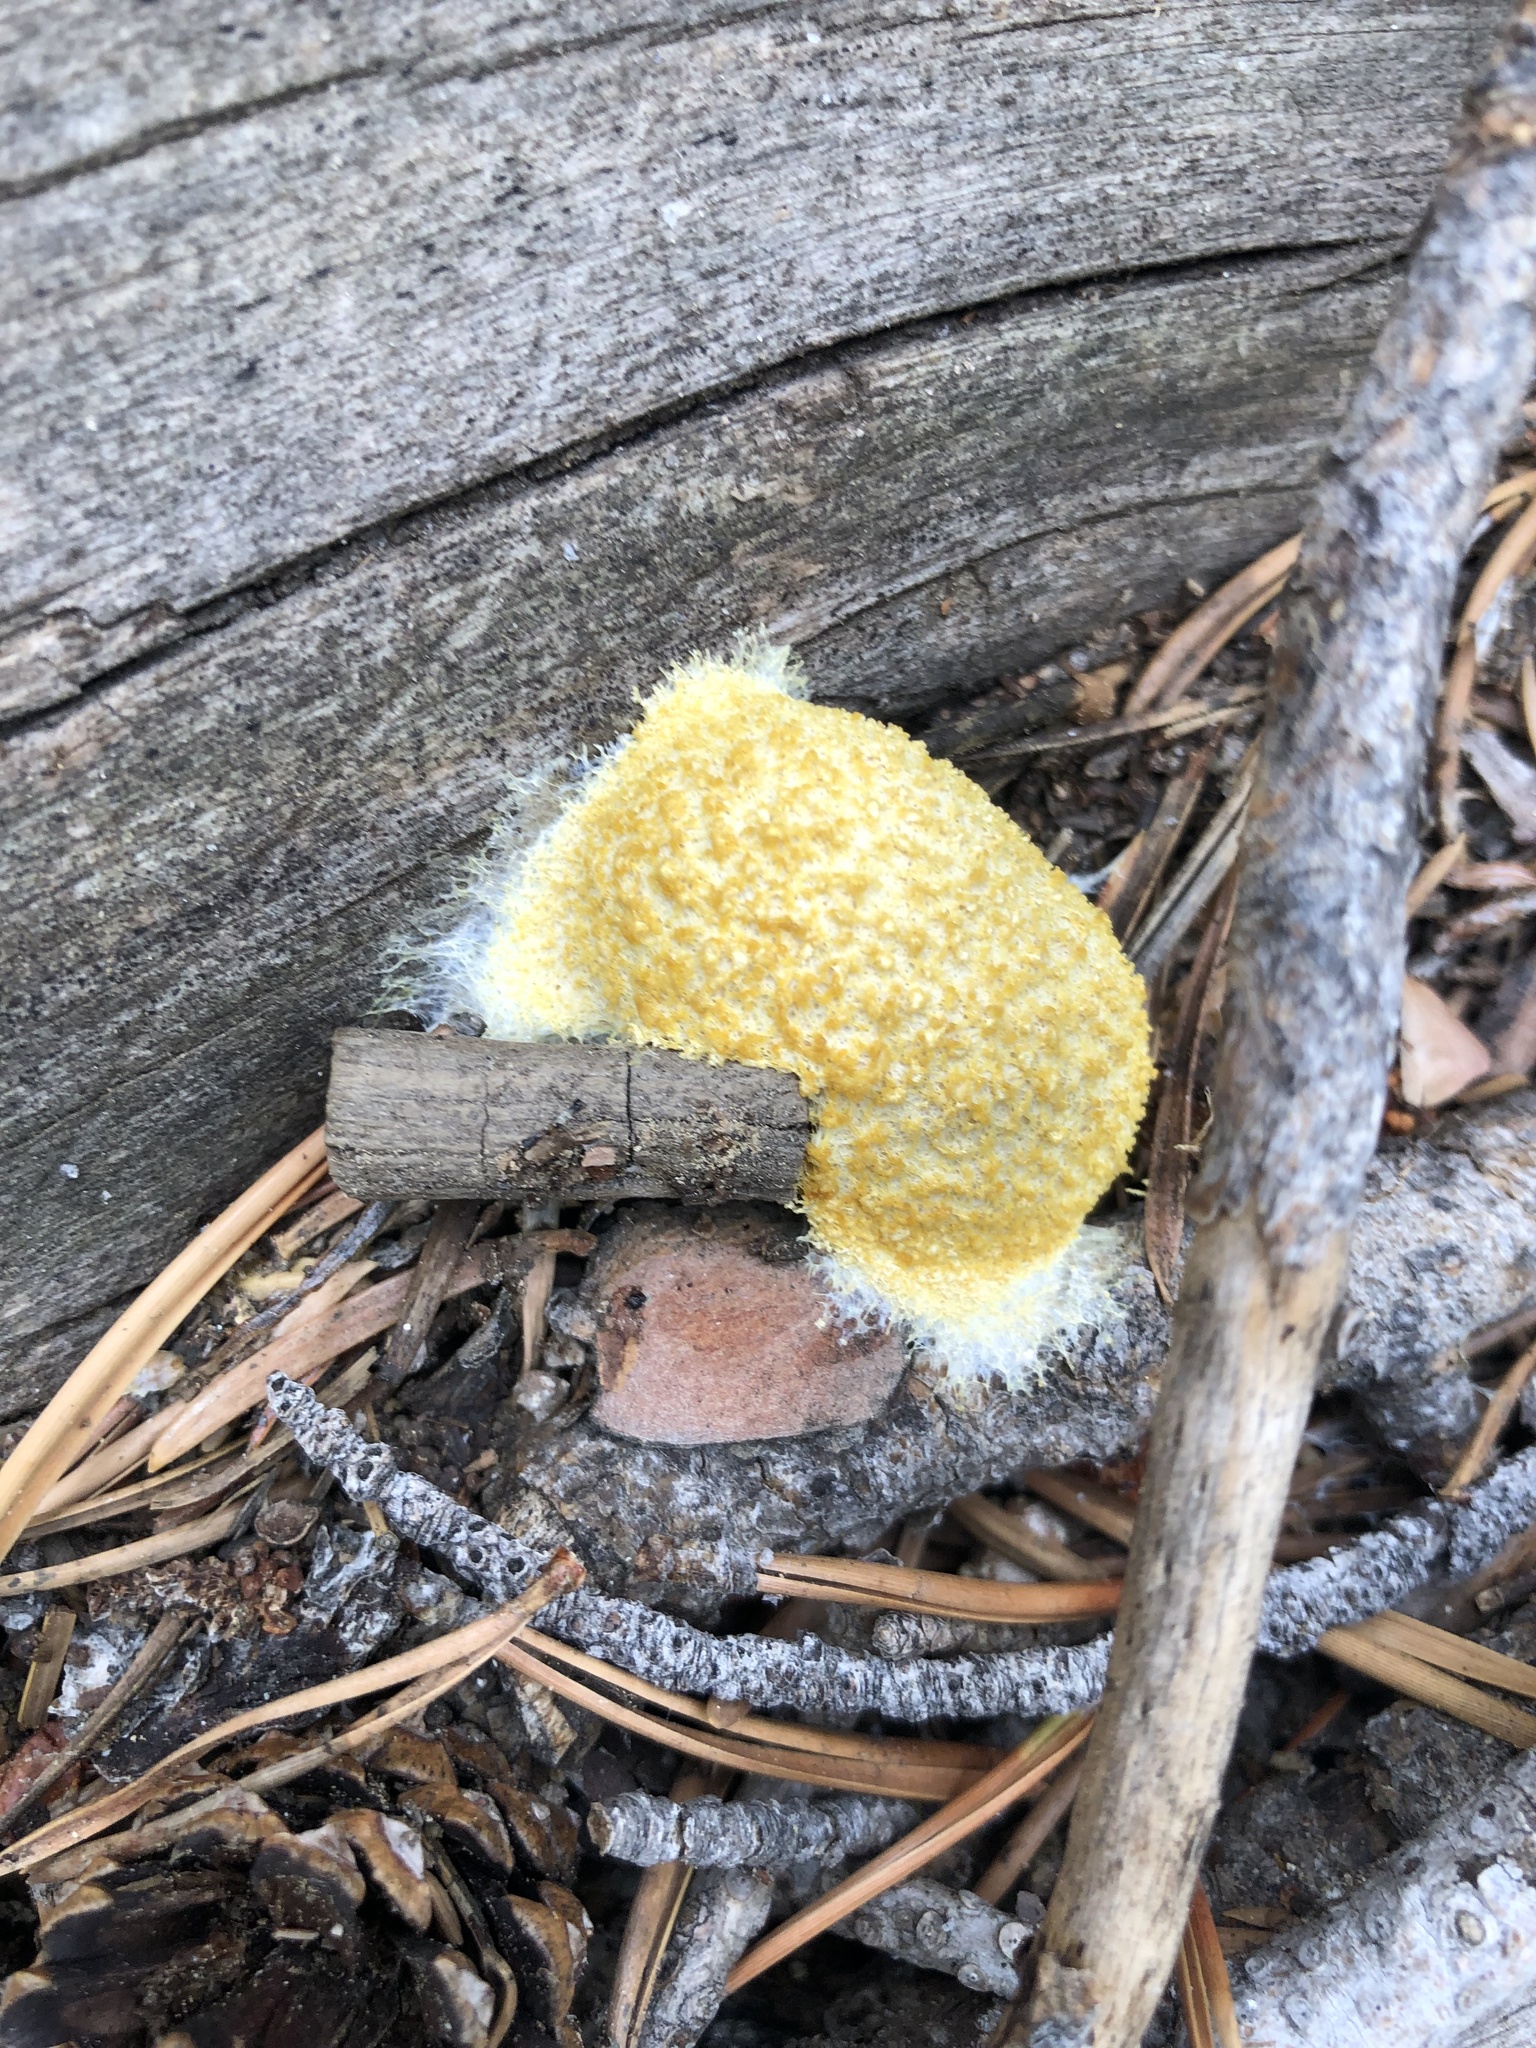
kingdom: Protozoa
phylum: Mycetozoa
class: Myxomycetes
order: Physarales
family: Physaraceae
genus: Fuligo
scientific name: Fuligo septica
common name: Dog vomit slime mold
